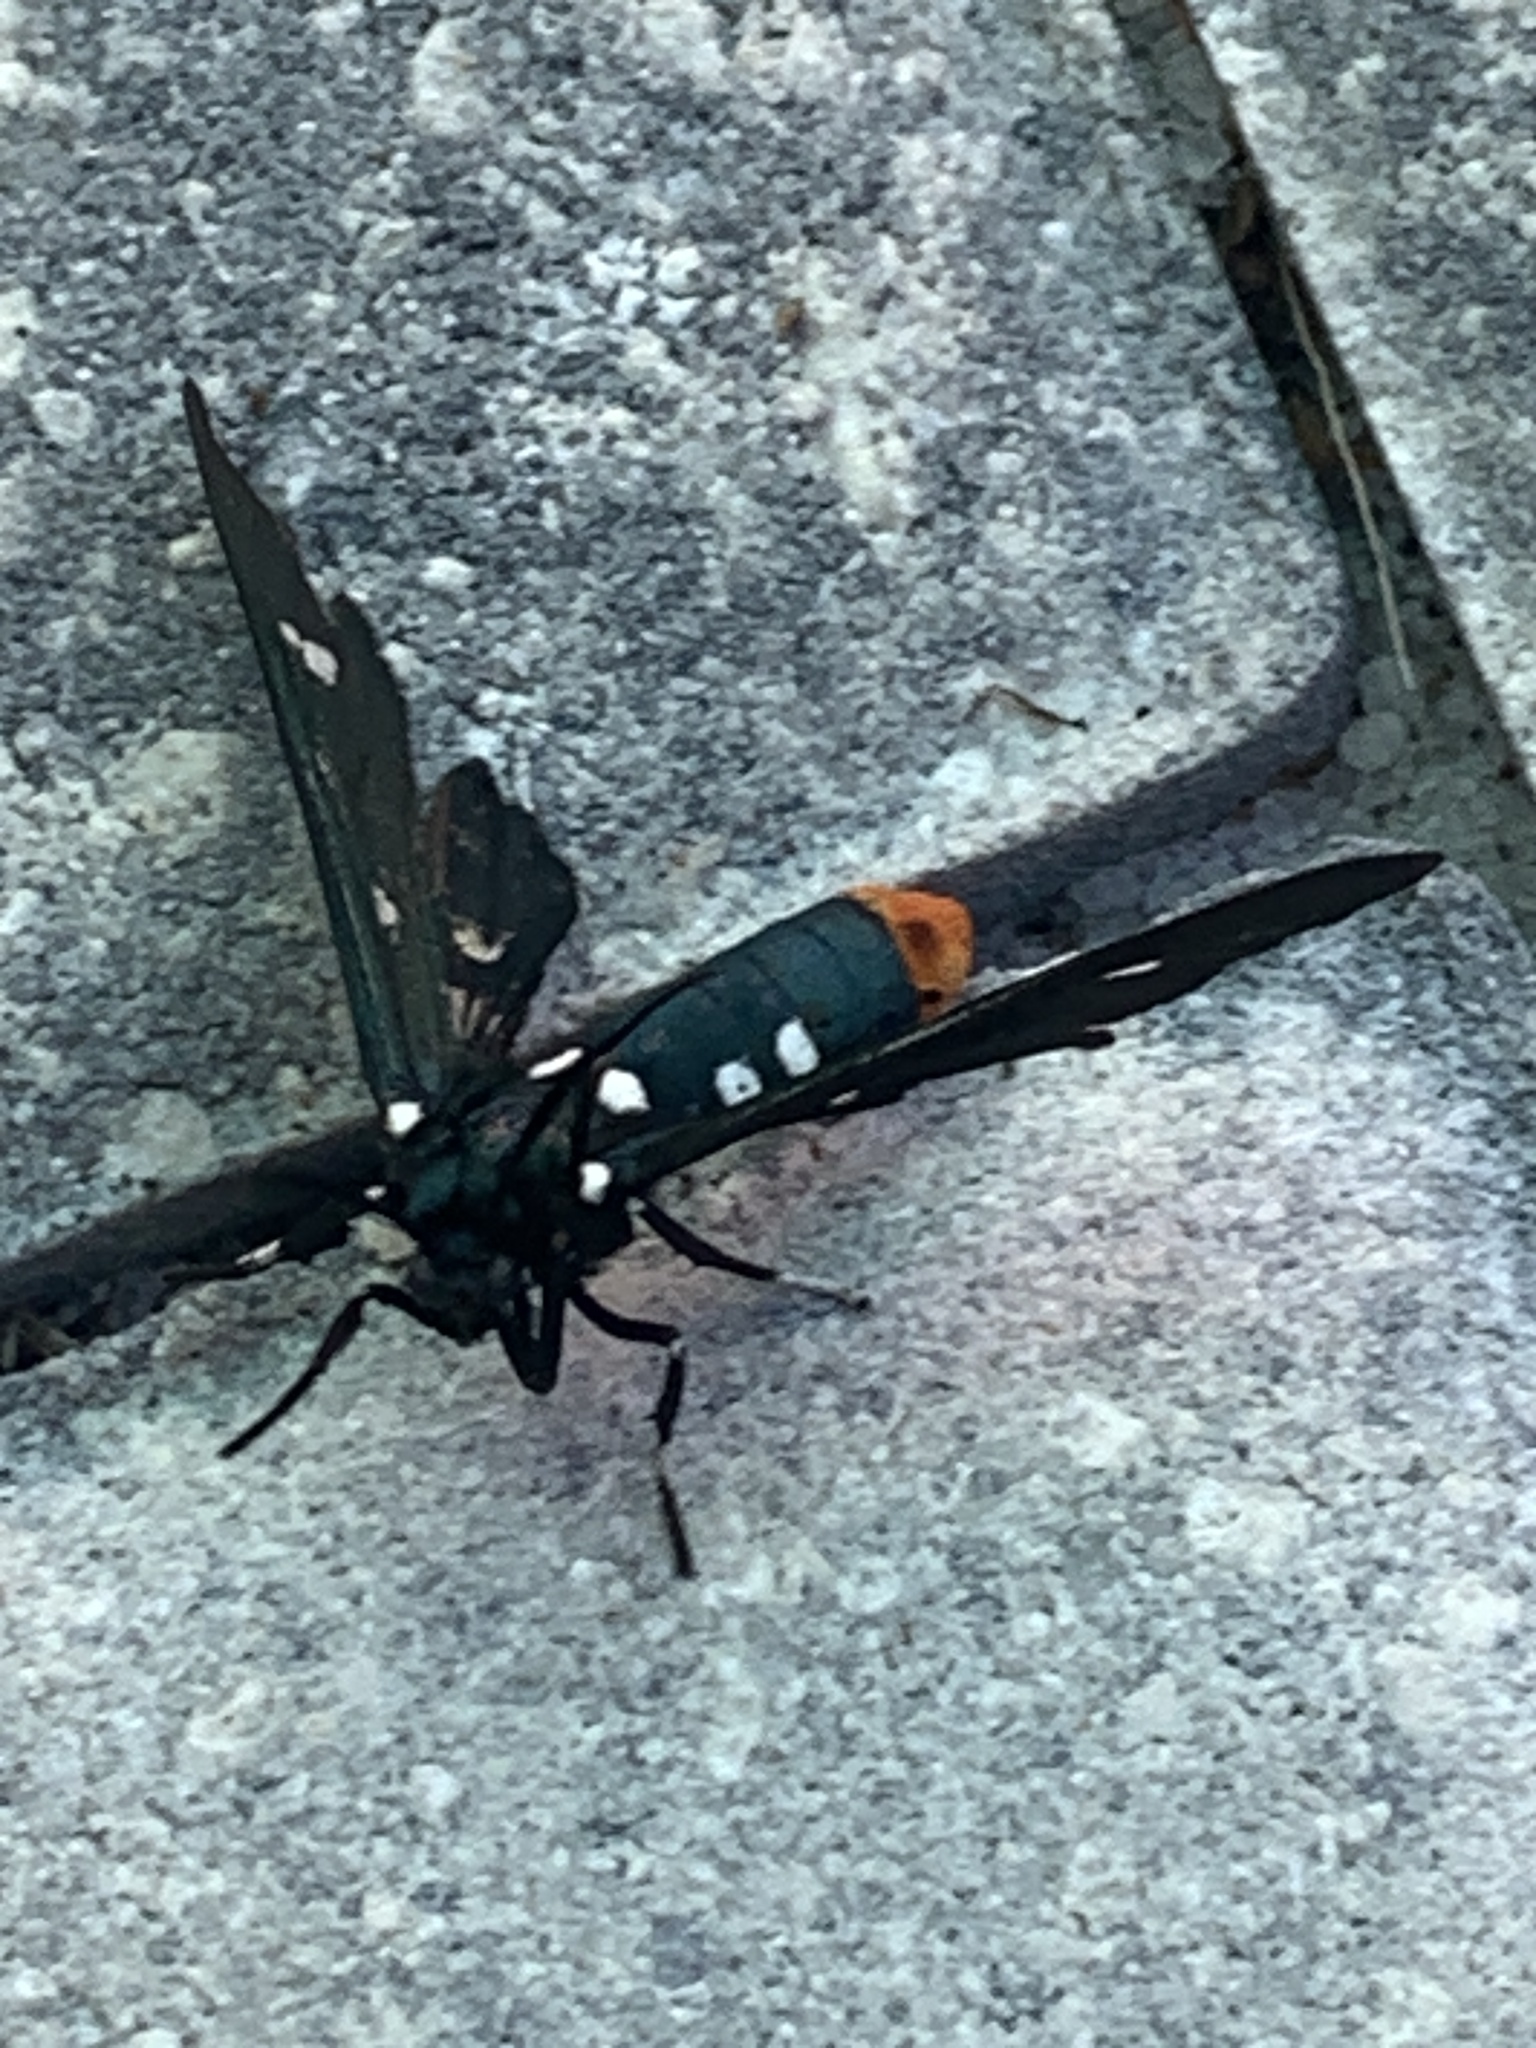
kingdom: Animalia
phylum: Arthropoda
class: Insecta
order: Lepidoptera
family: Erebidae
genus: Syntomeida
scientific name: Syntomeida epilais
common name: Polka-dot wasp moth
